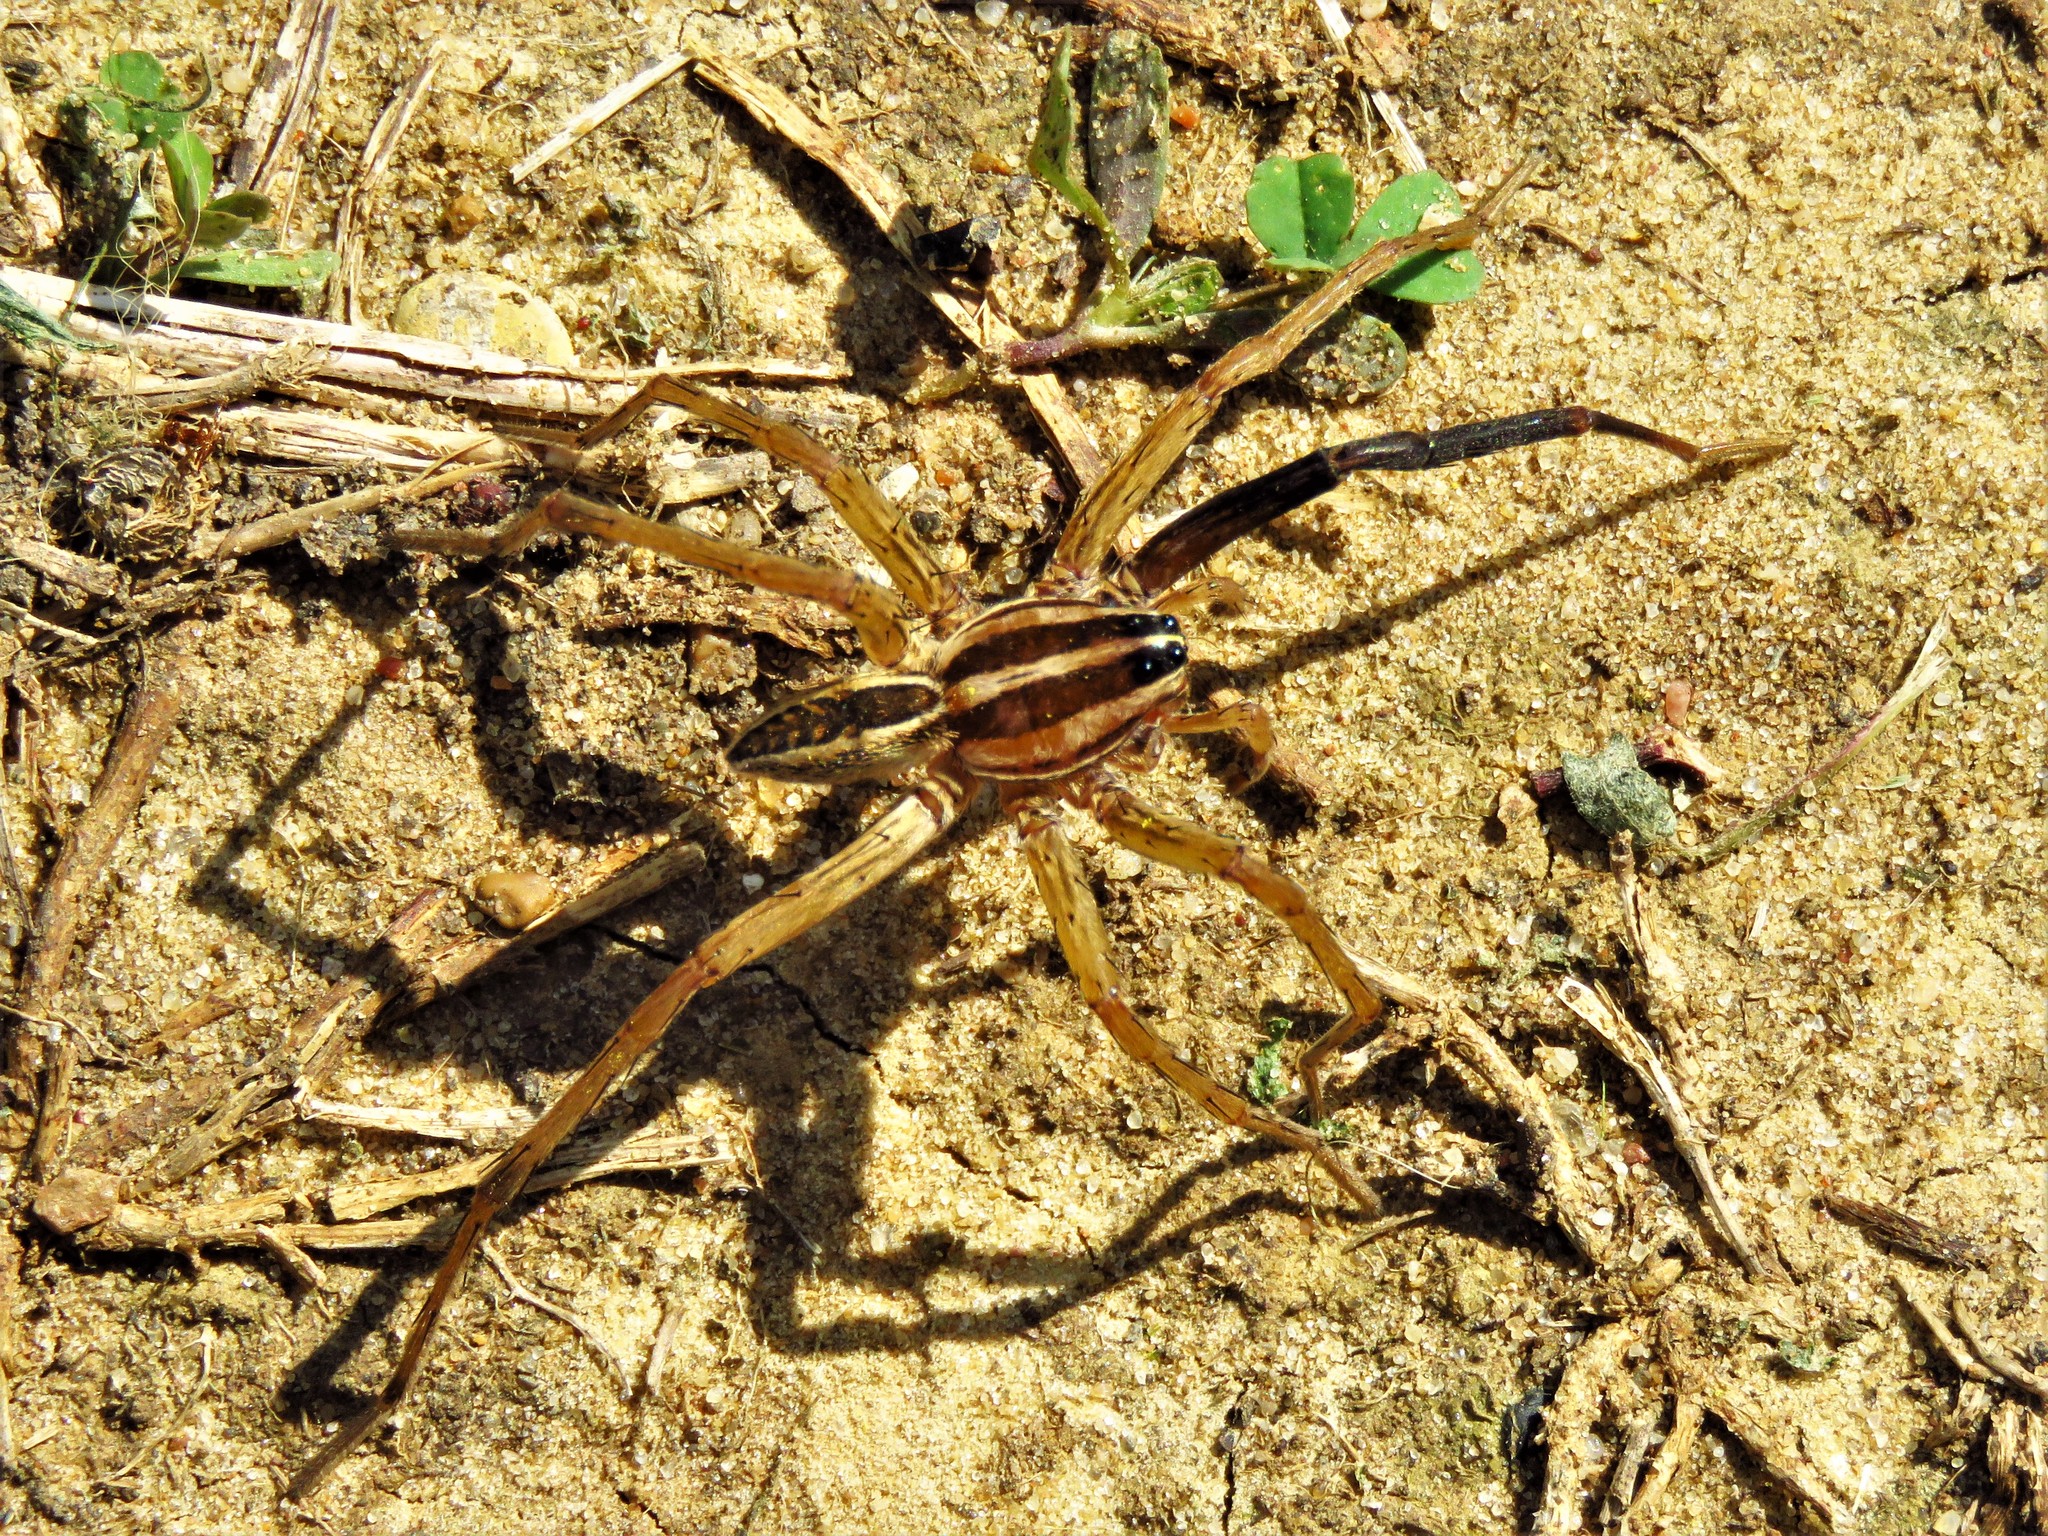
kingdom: Animalia
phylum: Arthropoda
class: Arachnida
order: Araneae
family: Lycosidae
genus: Rabidosa
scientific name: Rabidosa rabida
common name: Rabid wolf spider
